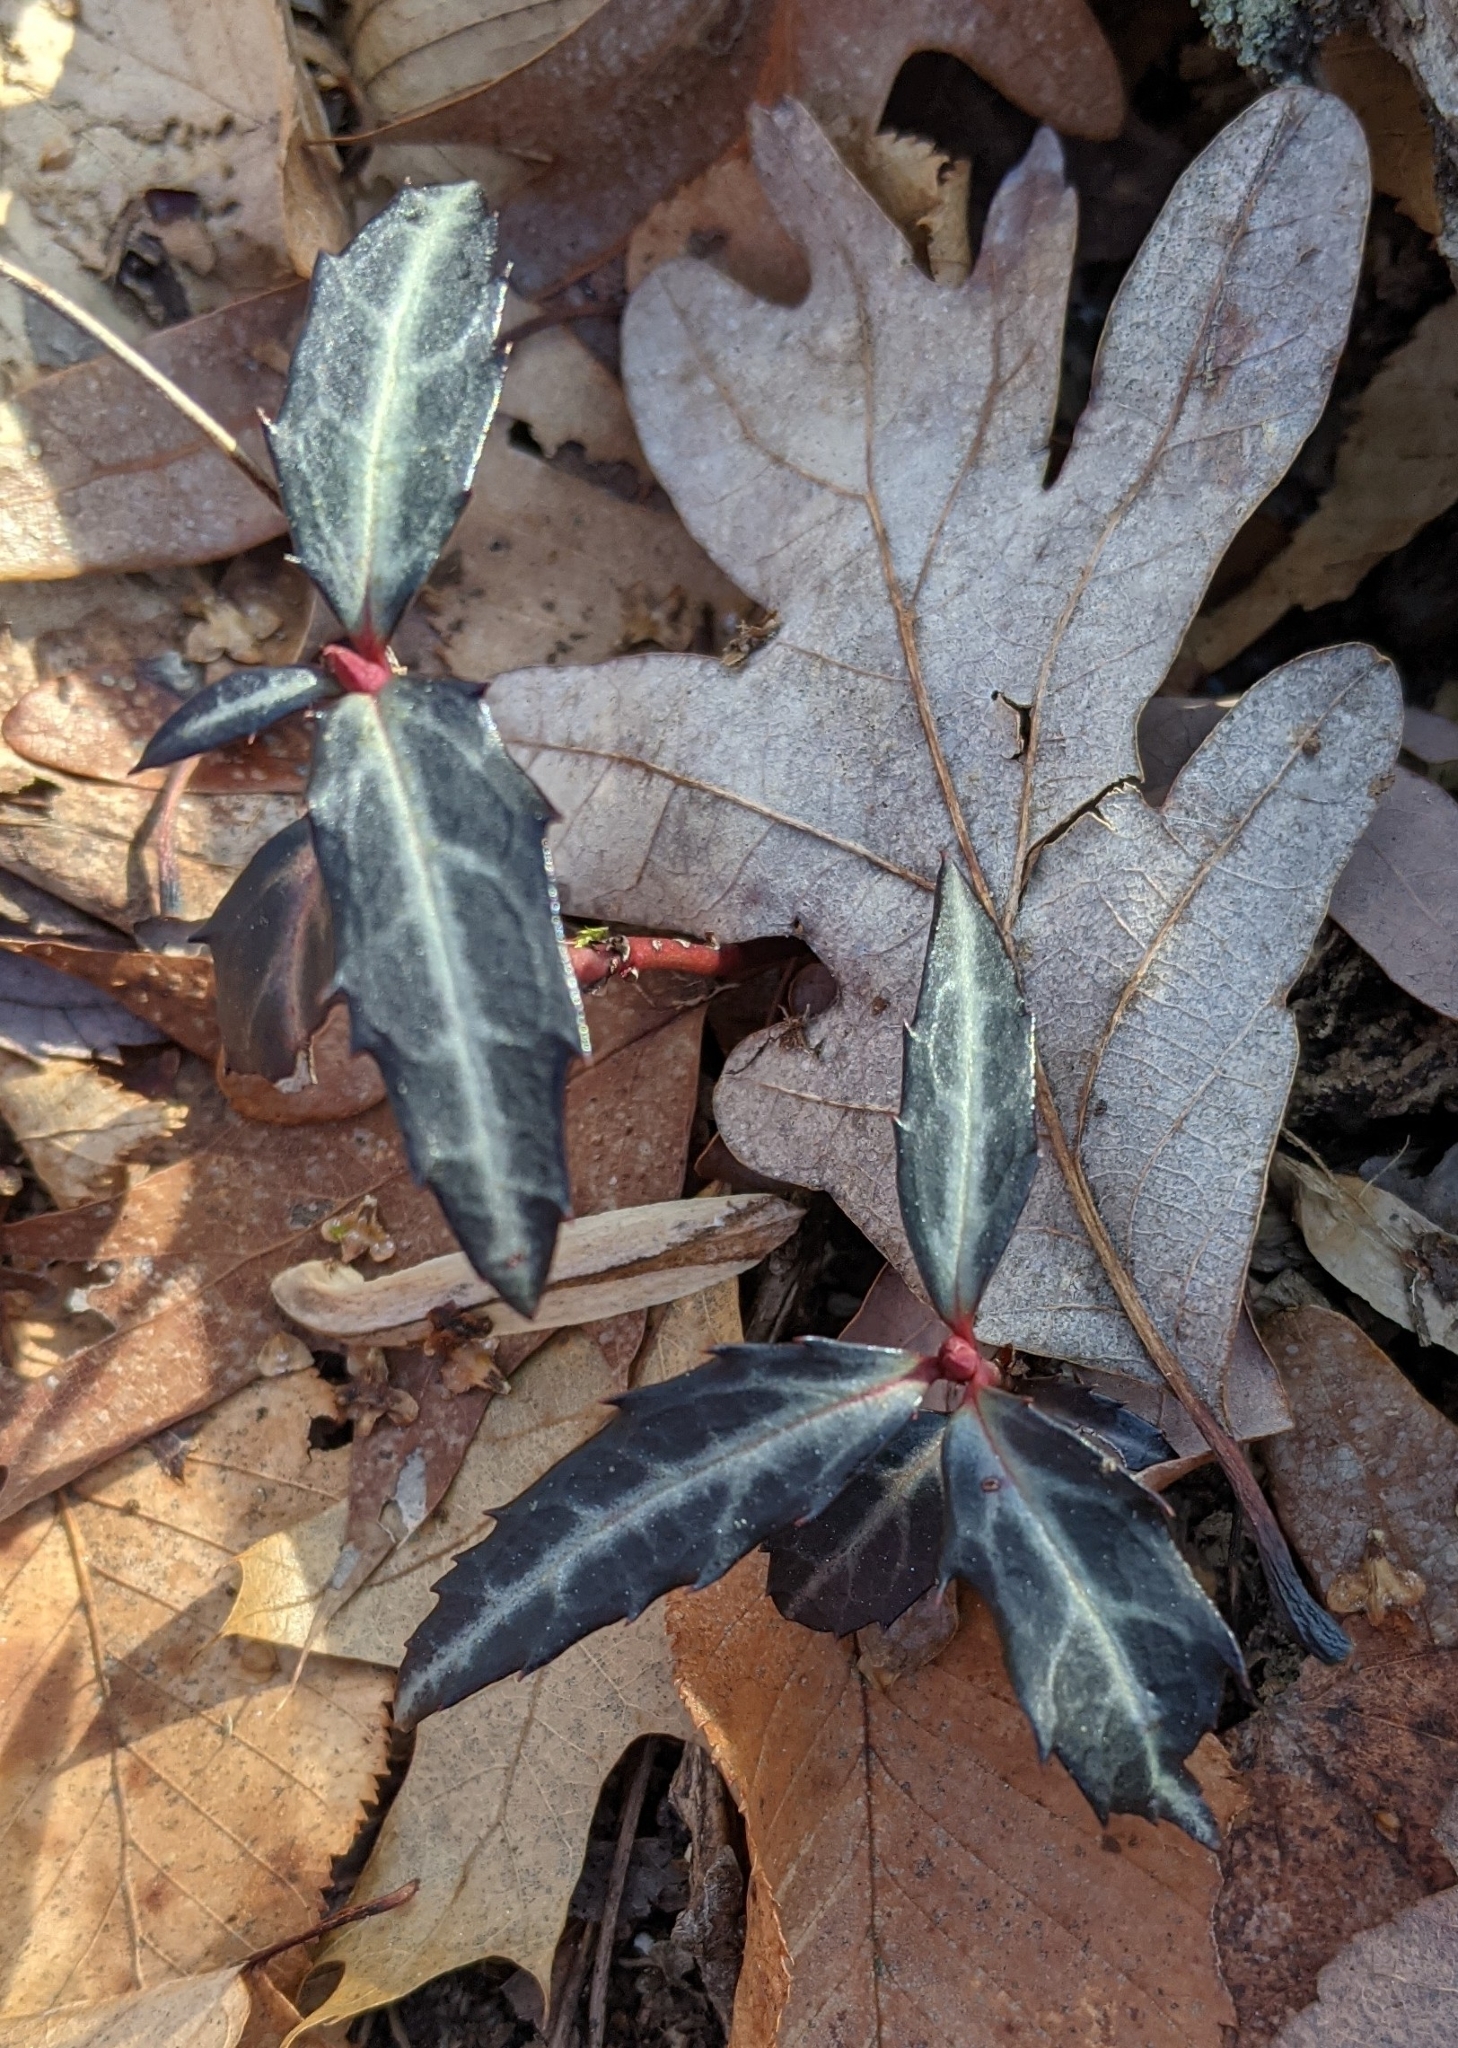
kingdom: Plantae
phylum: Tracheophyta
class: Magnoliopsida
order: Ericales
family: Ericaceae
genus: Chimaphila
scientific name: Chimaphila maculata
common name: Spotted pipsissewa
